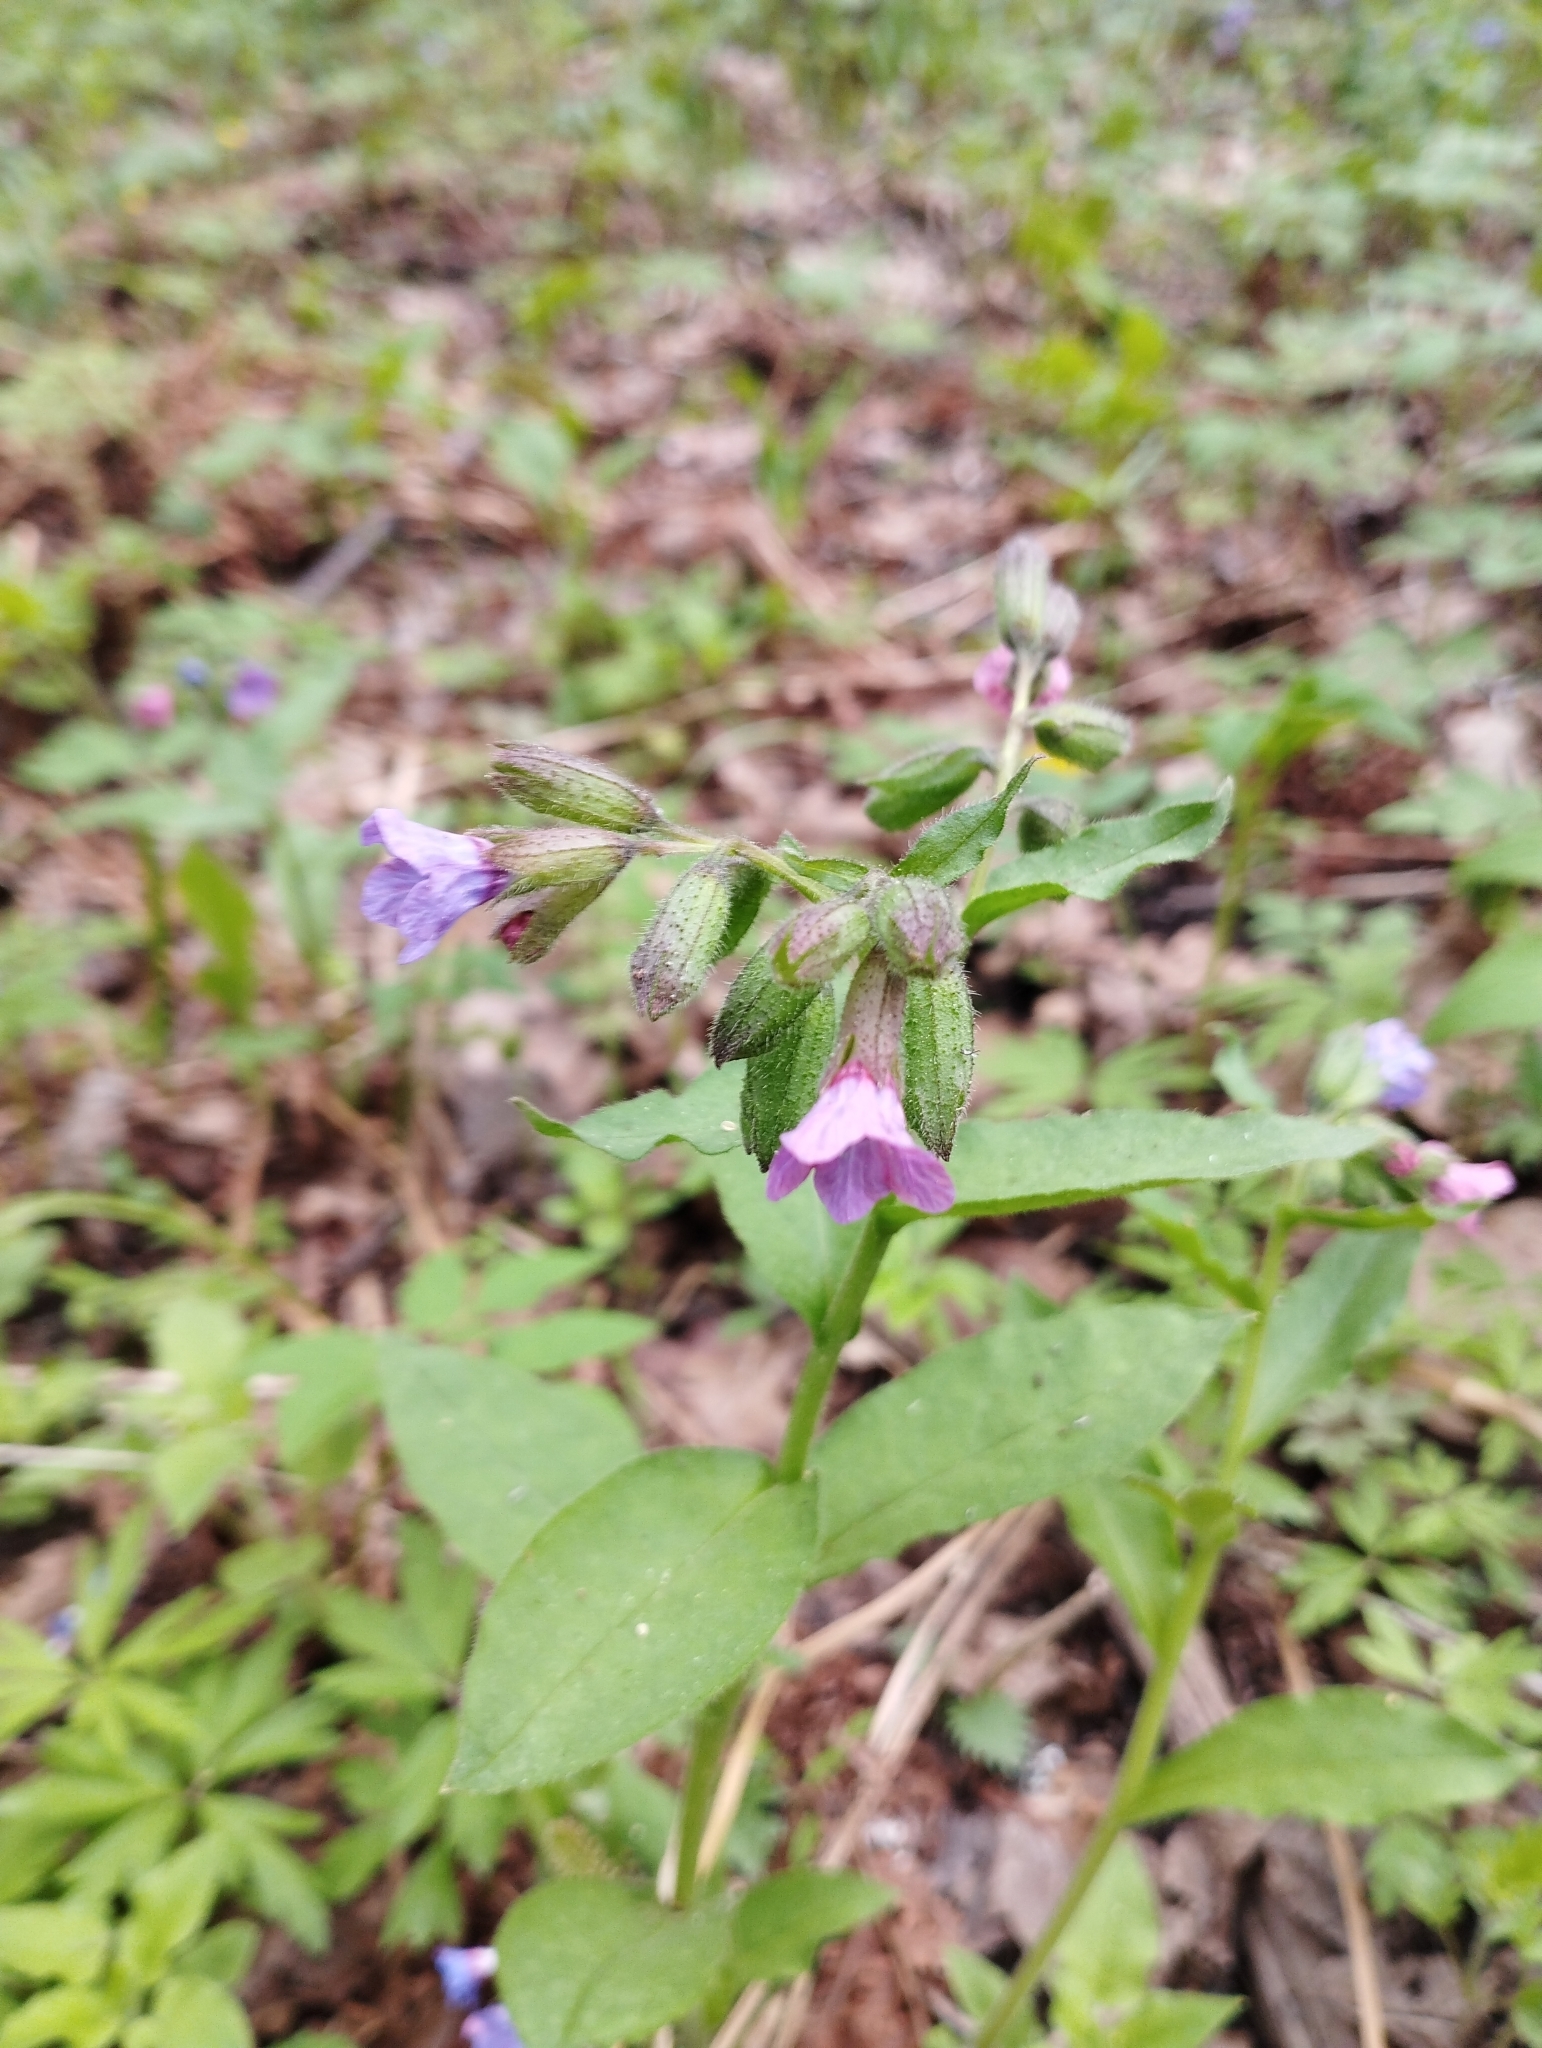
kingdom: Plantae
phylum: Tracheophyta
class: Magnoliopsida
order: Boraginales
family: Boraginaceae
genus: Pulmonaria
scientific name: Pulmonaria obscura
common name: Suffolk lungwort
